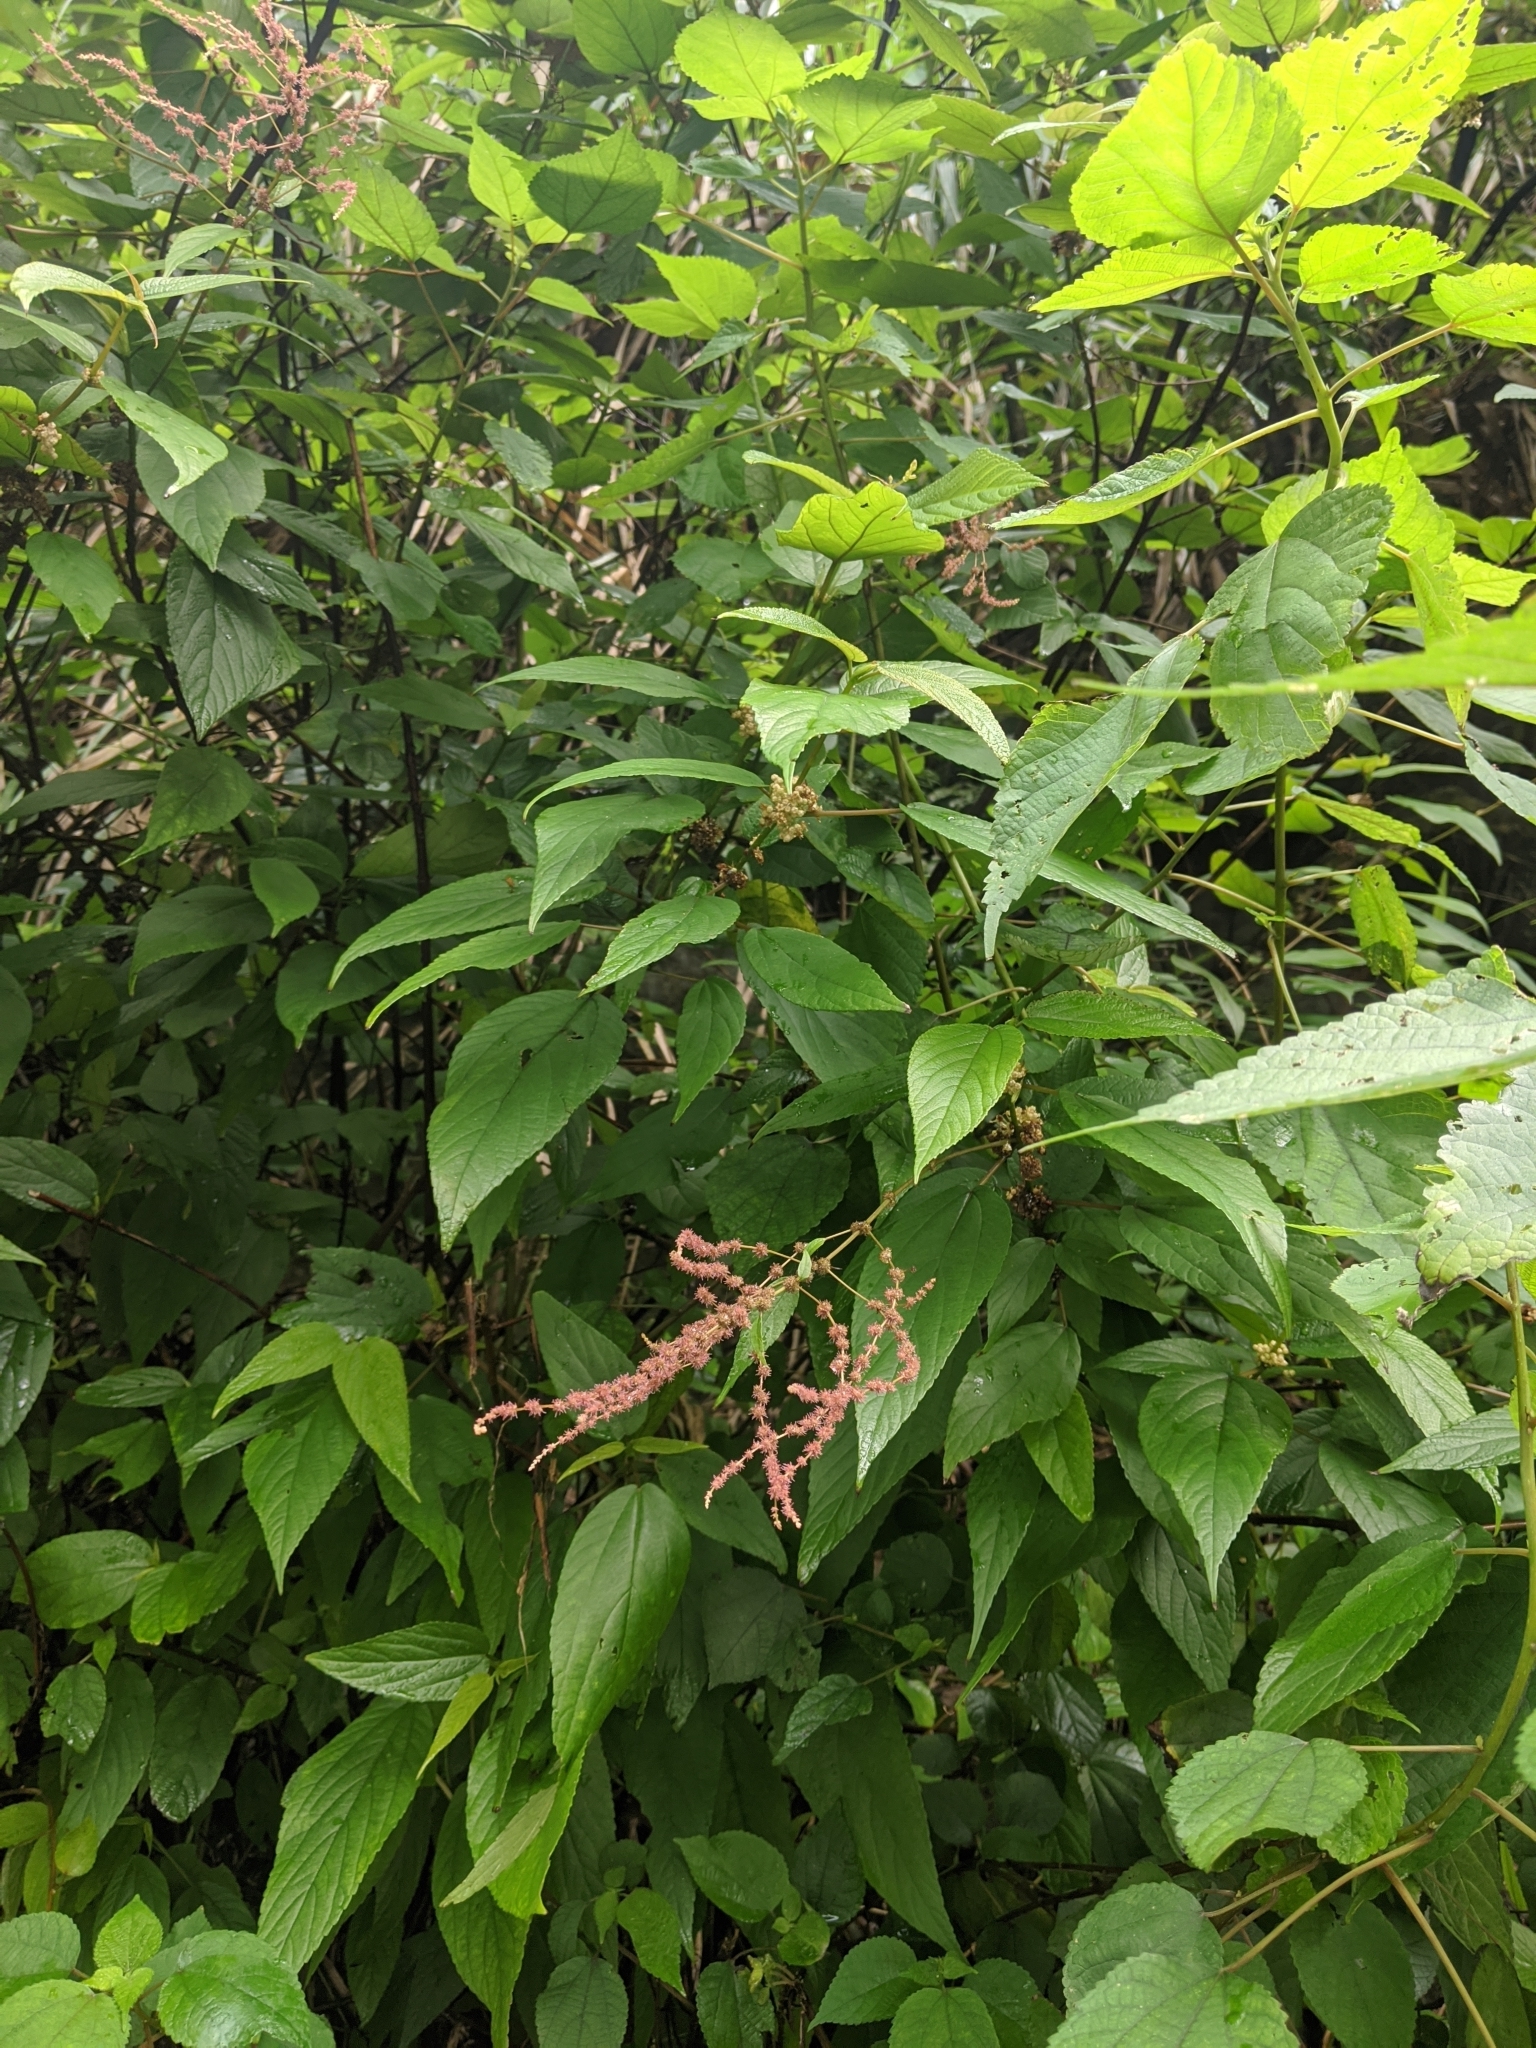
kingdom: Plantae
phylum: Tracheophyta
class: Magnoliopsida
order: Rosales
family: Urticaceae
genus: Boehmeria
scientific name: Boehmeria zollingeriana
